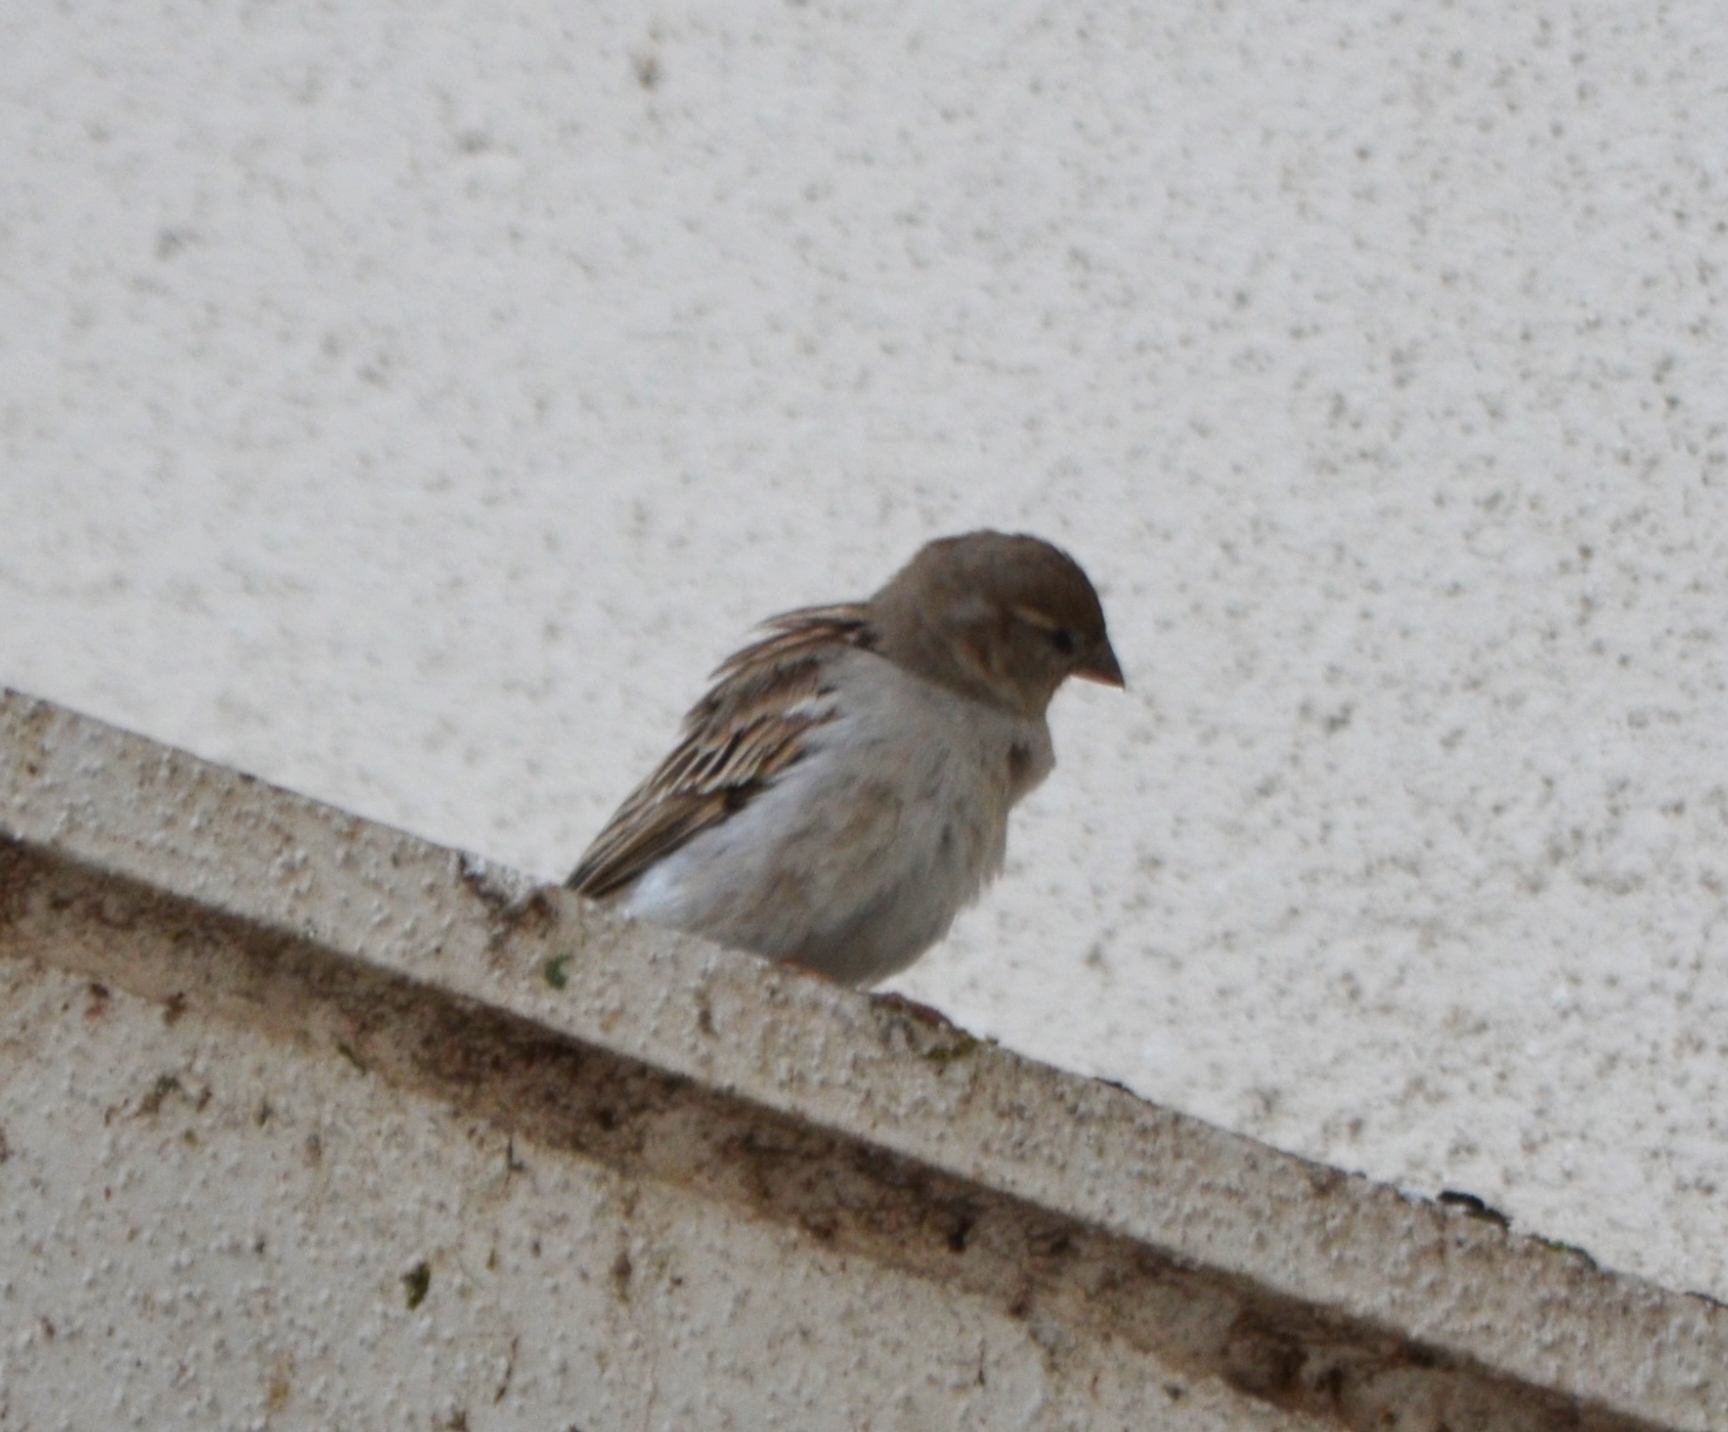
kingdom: Animalia
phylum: Chordata
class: Aves
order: Passeriformes
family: Passeridae
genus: Passer
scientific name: Passer domesticus
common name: House sparrow
